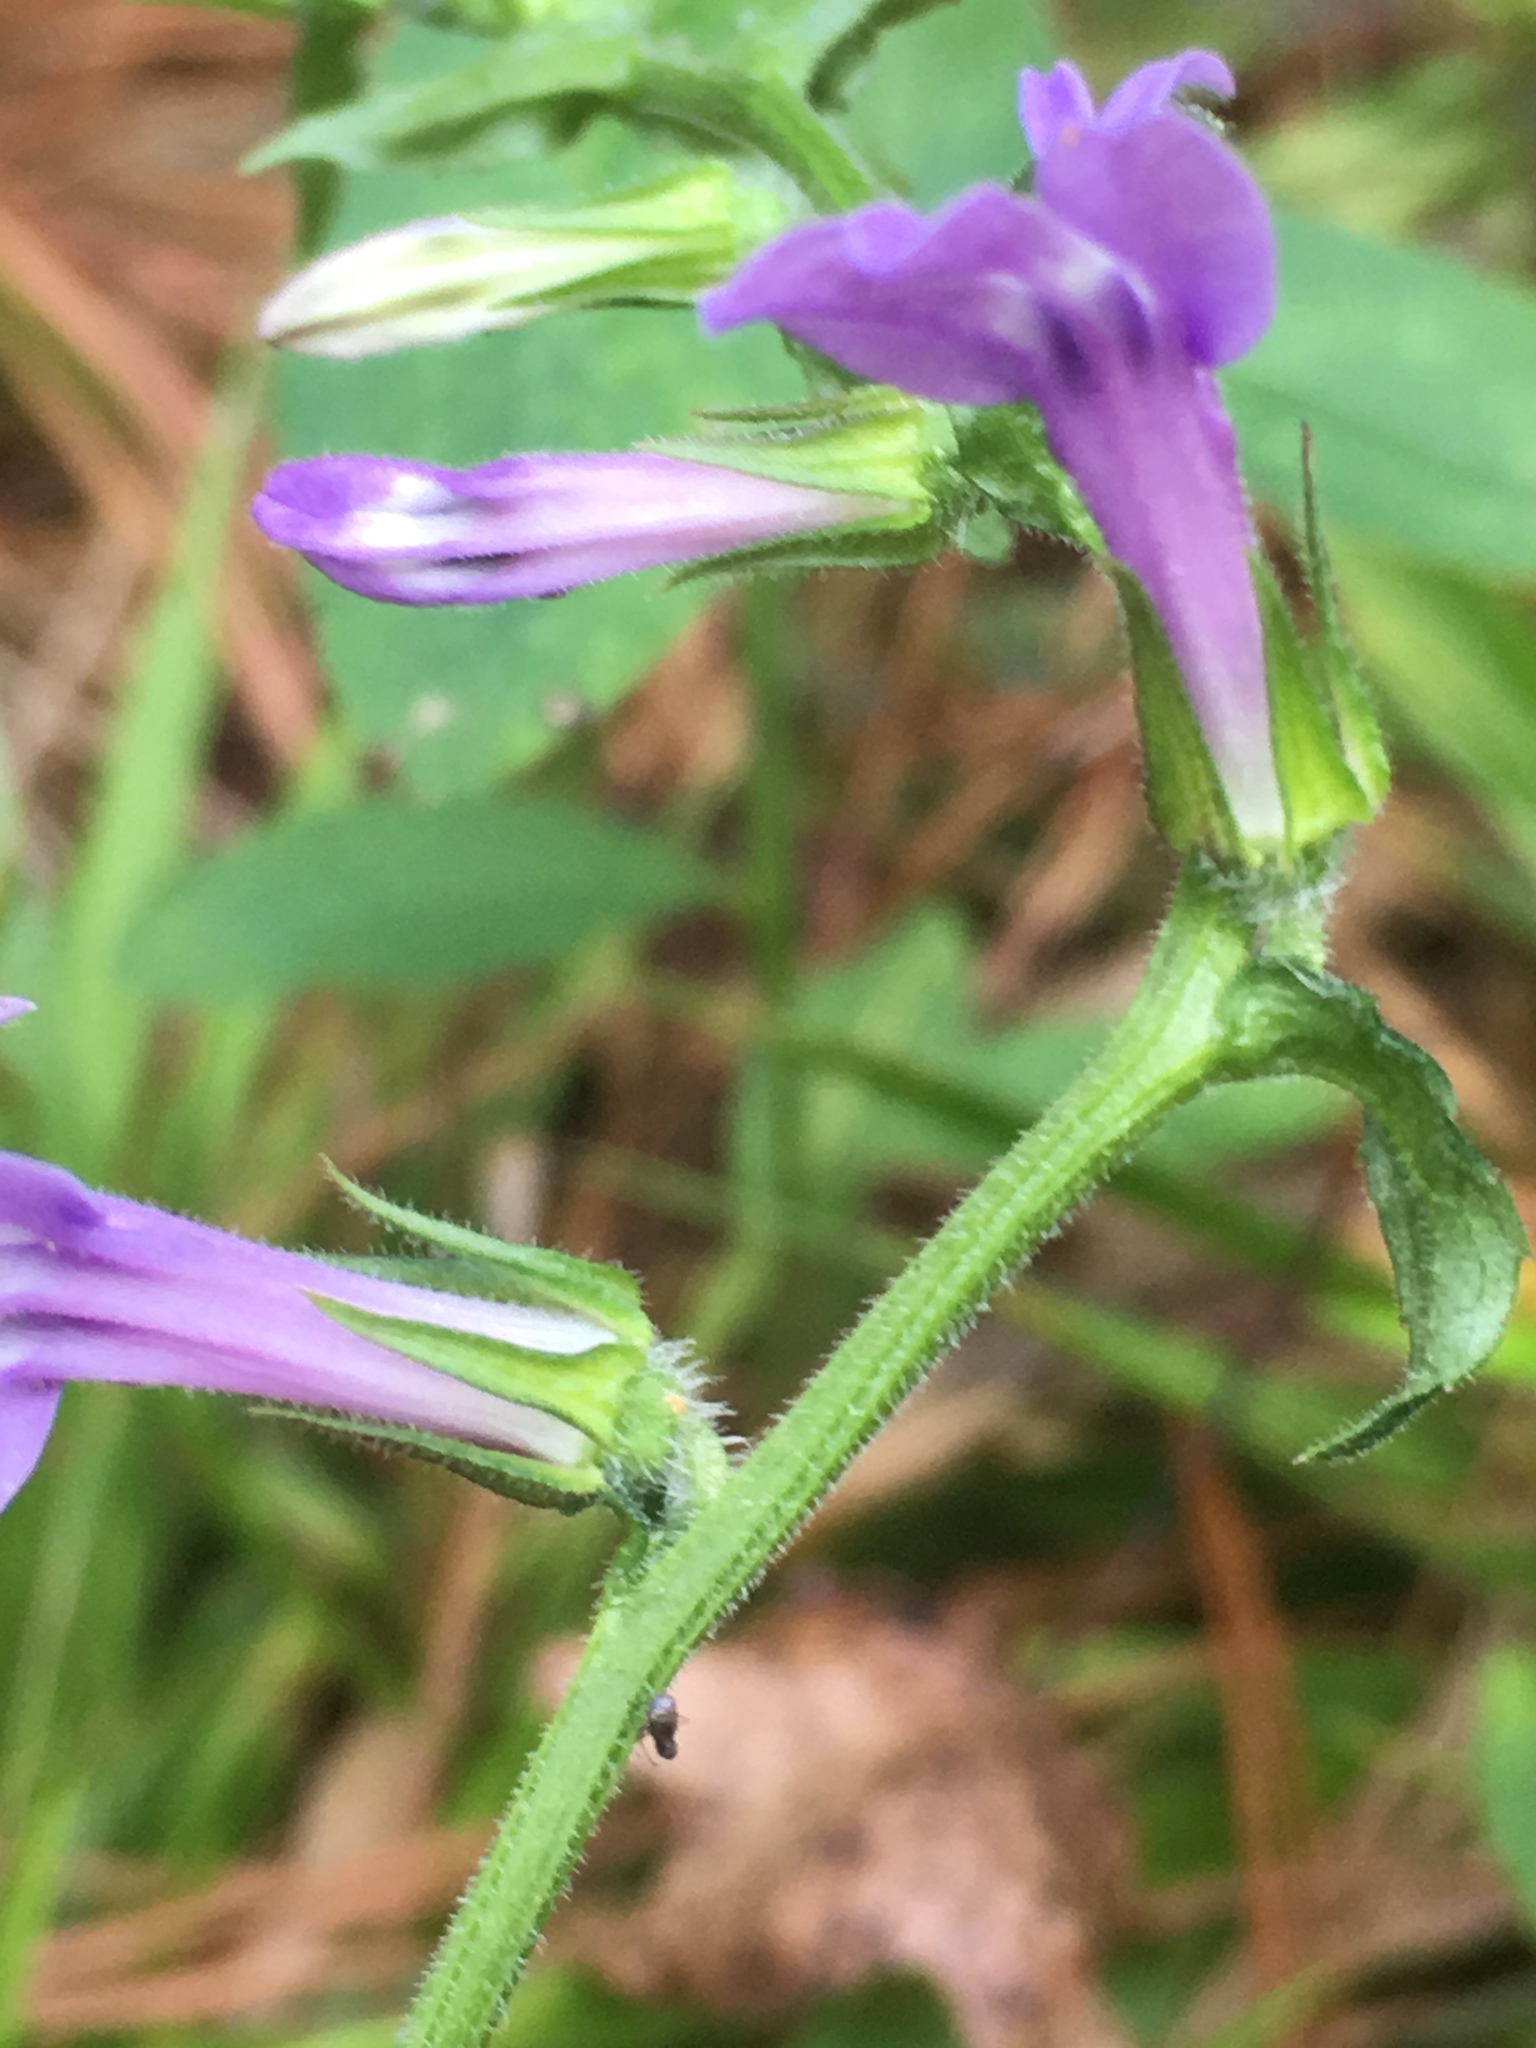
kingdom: Plantae
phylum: Tracheophyta
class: Magnoliopsida
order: Asterales
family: Campanulaceae
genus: Lobelia
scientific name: Lobelia puberula
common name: Purple dewdrop
